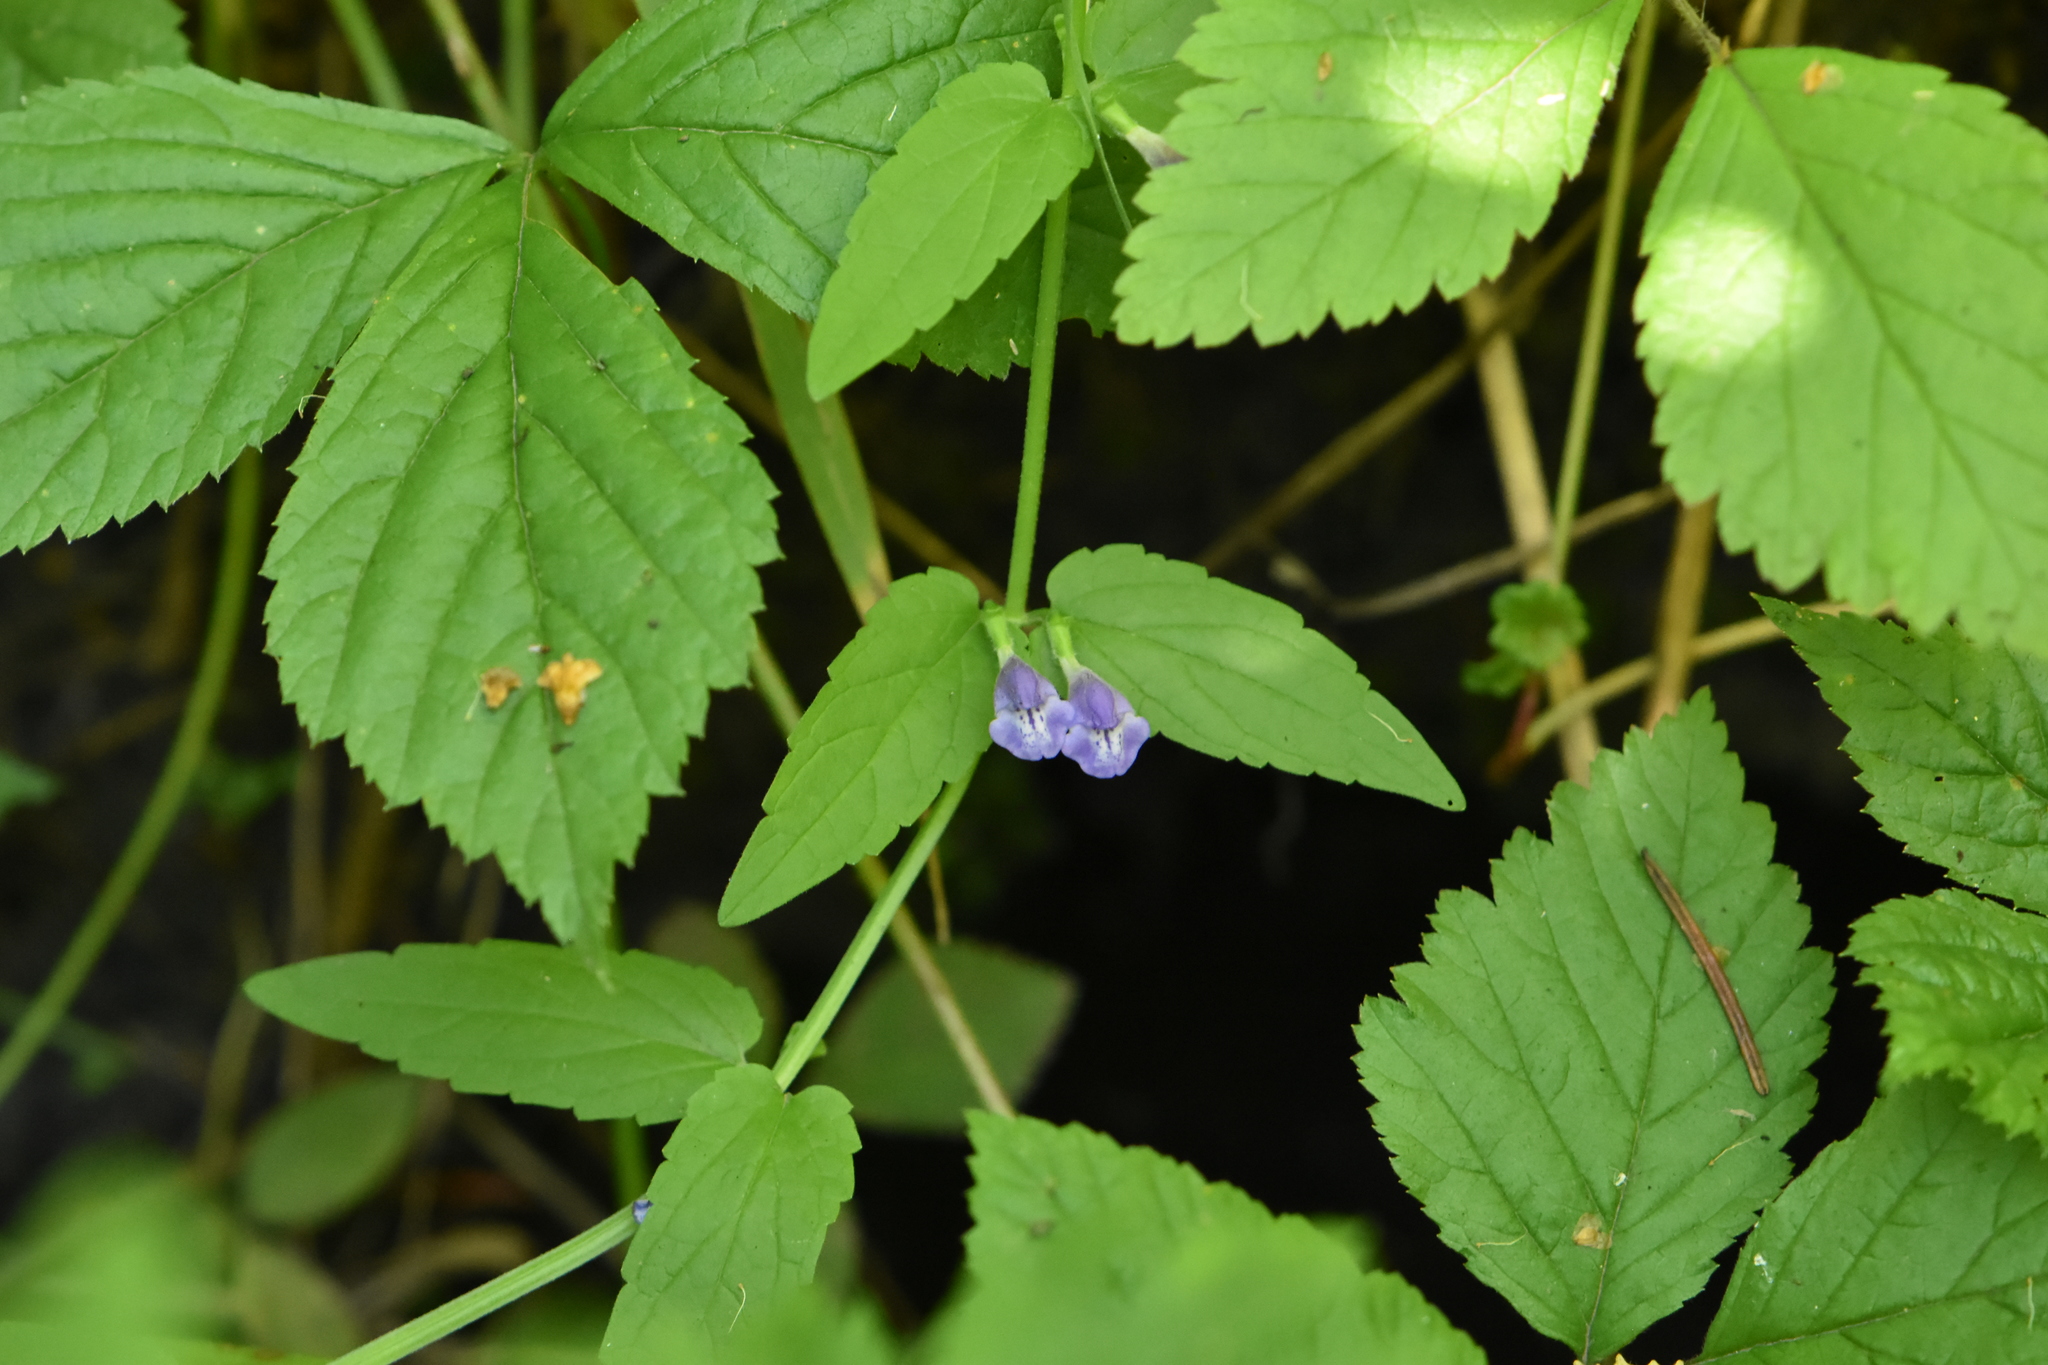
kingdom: Plantae
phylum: Tracheophyta
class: Magnoliopsida
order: Lamiales
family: Lamiaceae
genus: Scutellaria
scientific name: Scutellaria galericulata
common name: Skullcap
